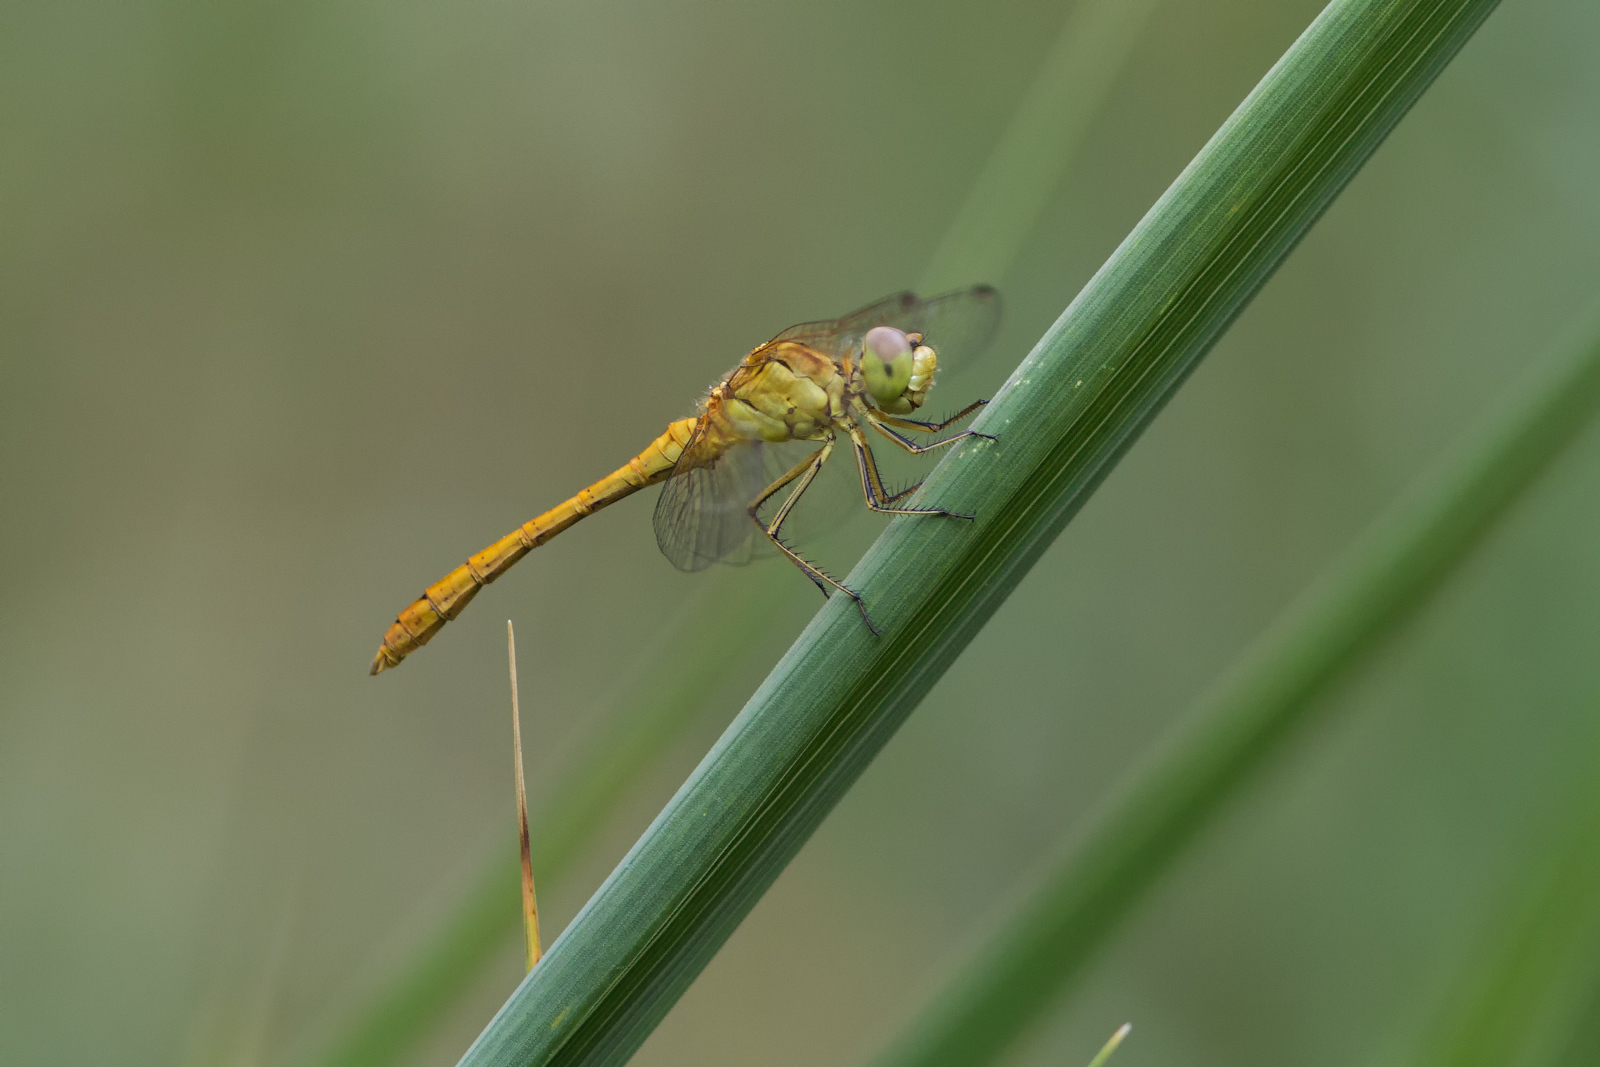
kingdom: Animalia
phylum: Arthropoda
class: Insecta
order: Odonata
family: Libellulidae
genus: Sympetrum
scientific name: Sympetrum meridionale
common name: Southern darter
